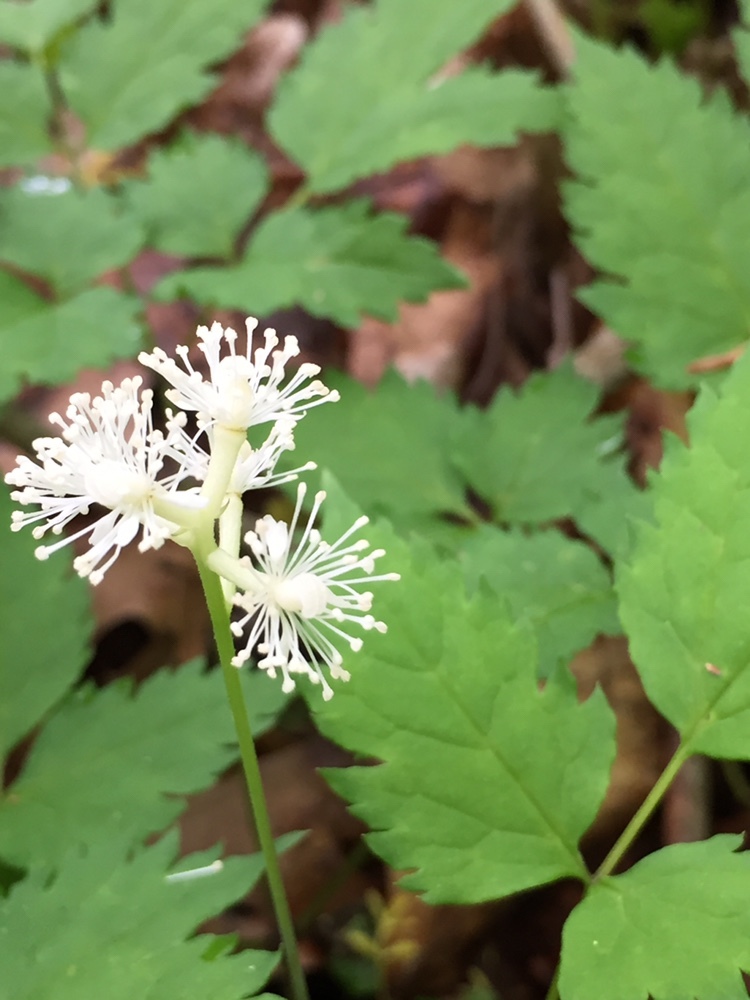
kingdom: Plantae
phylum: Tracheophyta
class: Magnoliopsida
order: Ranunculales
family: Ranunculaceae
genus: Actaea
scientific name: Actaea pachypoda
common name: Doll's-eyes
